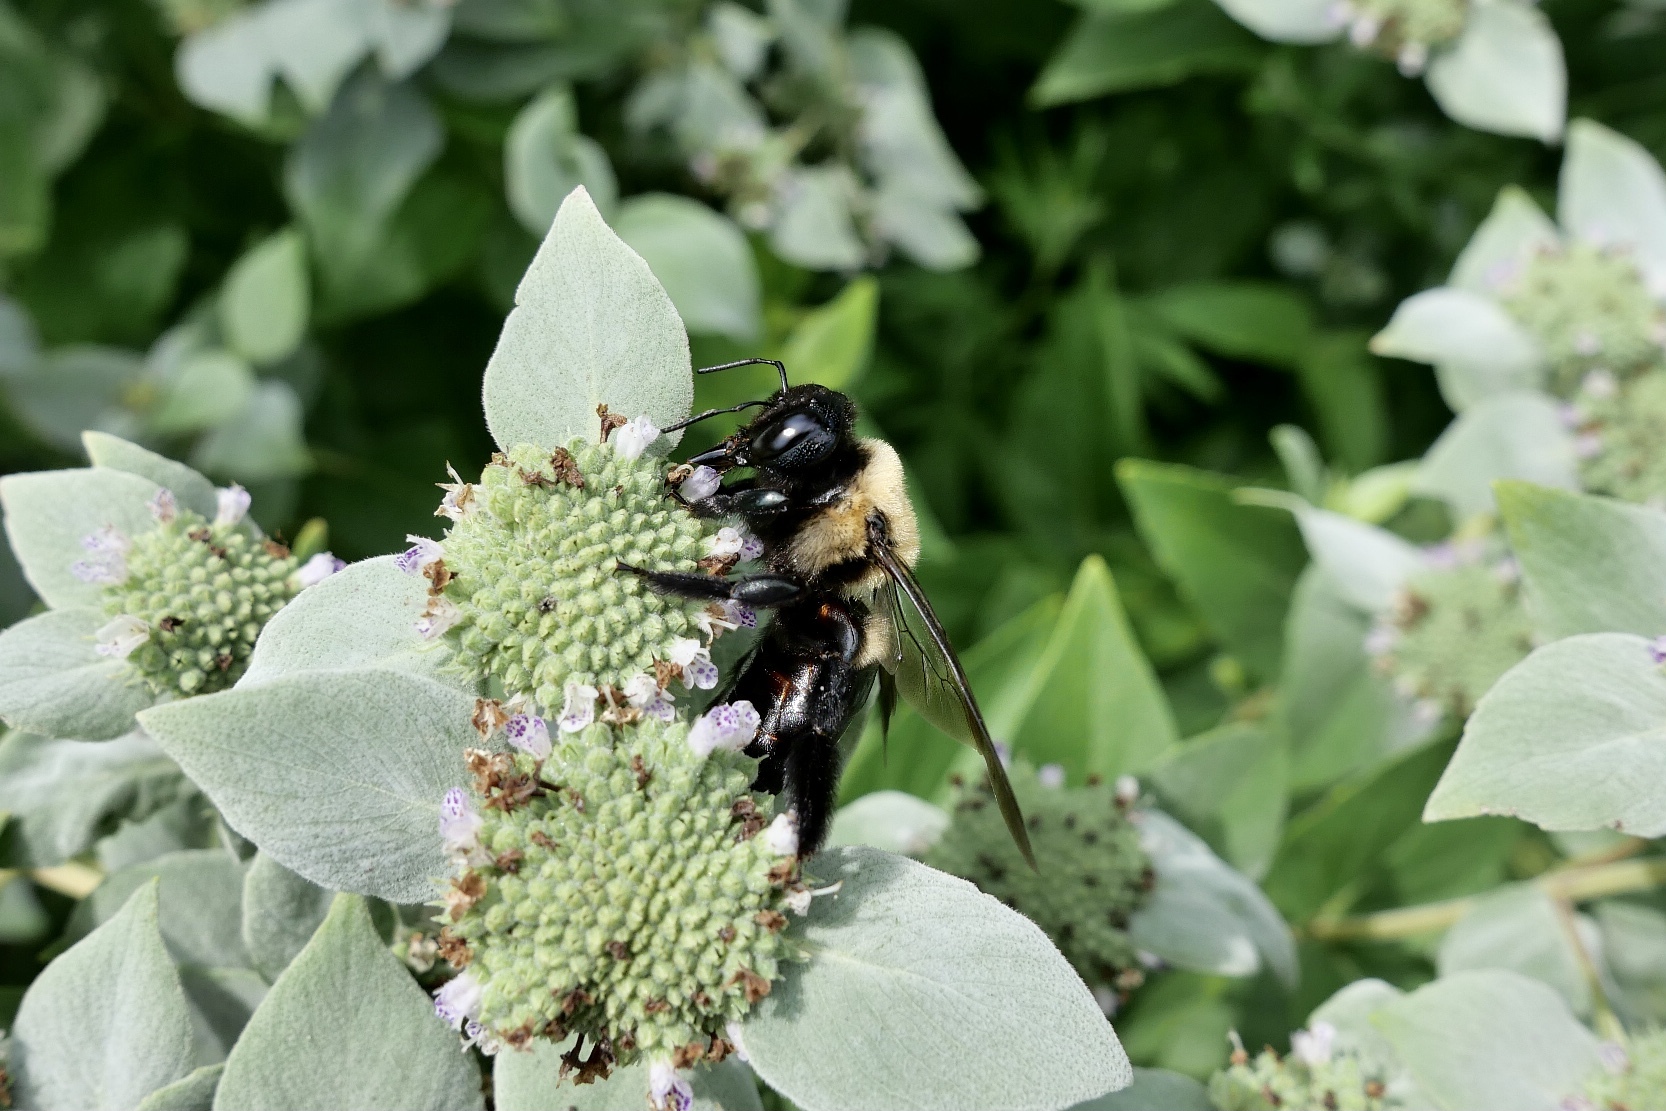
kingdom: Animalia
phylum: Arthropoda
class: Insecta
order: Hymenoptera
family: Apidae
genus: Xylocopa
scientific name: Xylocopa virginica
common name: Carpenter bee
